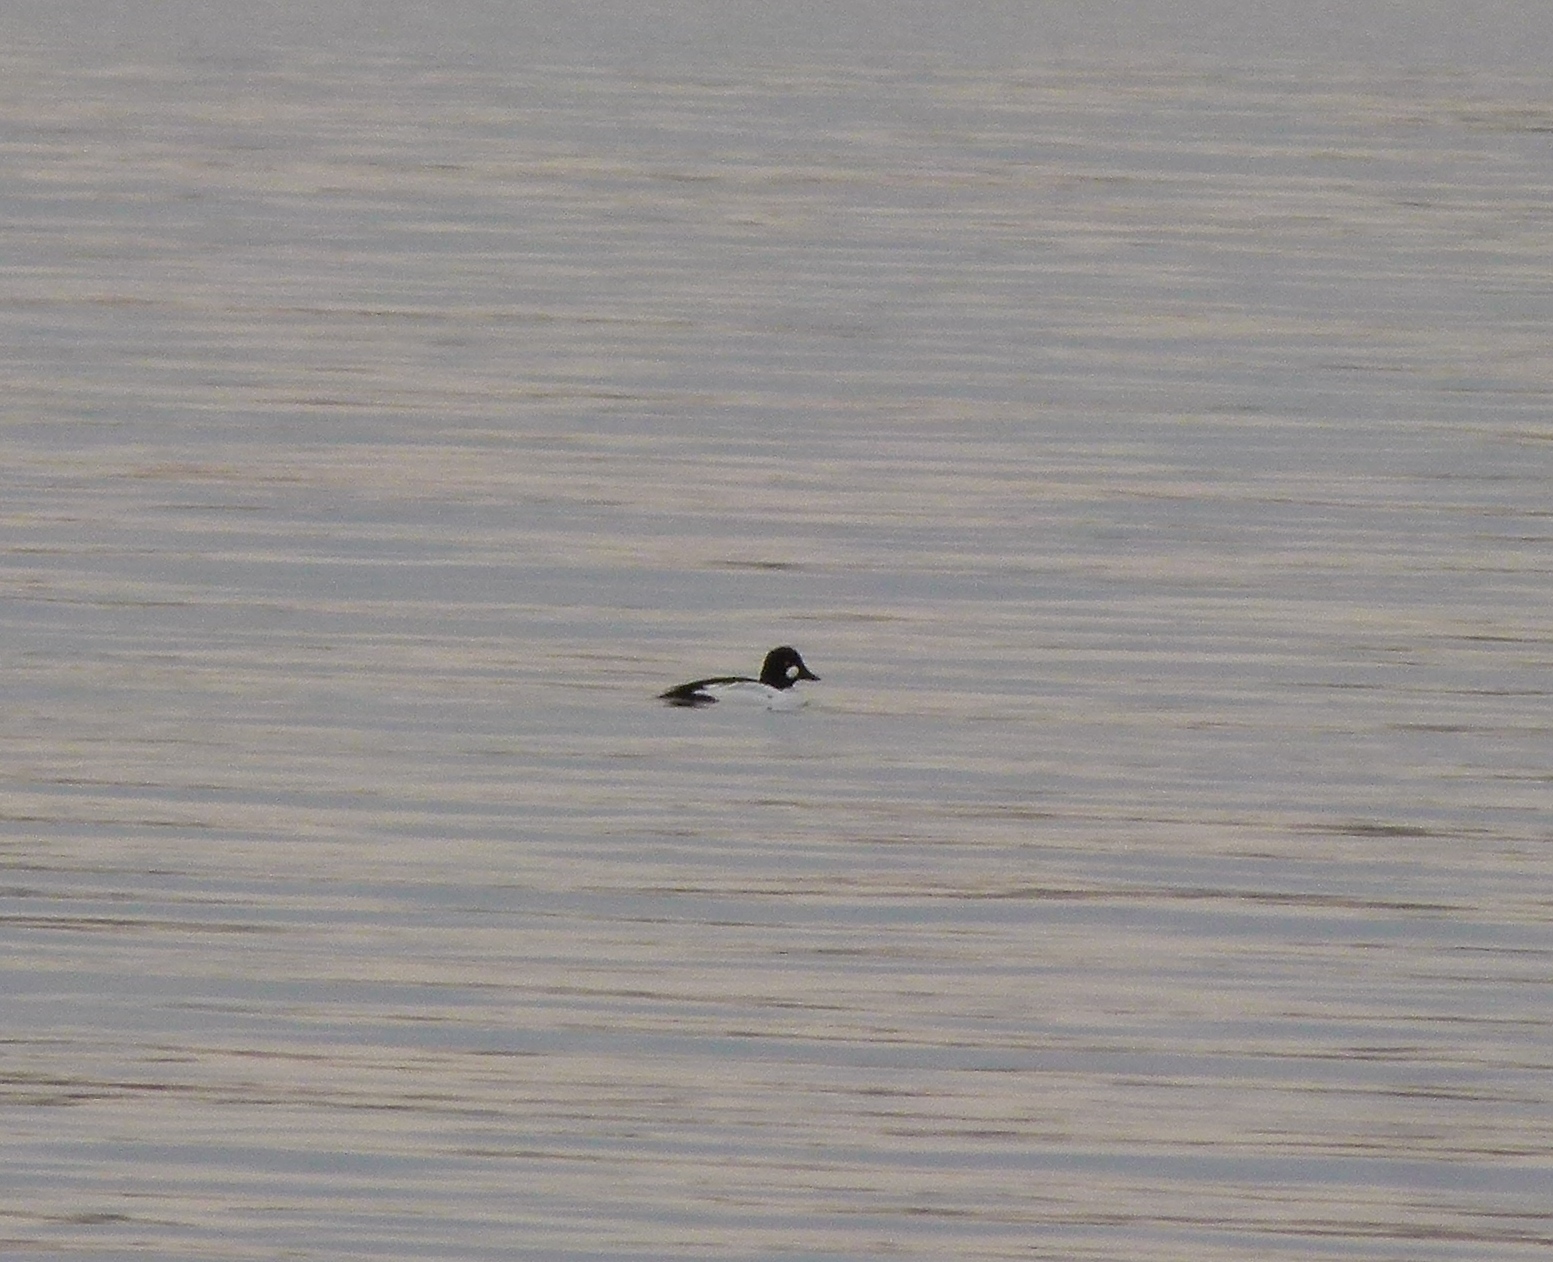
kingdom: Animalia
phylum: Chordata
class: Aves
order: Anseriformes
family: Anatidae
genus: Bucephala
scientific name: Bucephala clangula
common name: Common goldeneye
